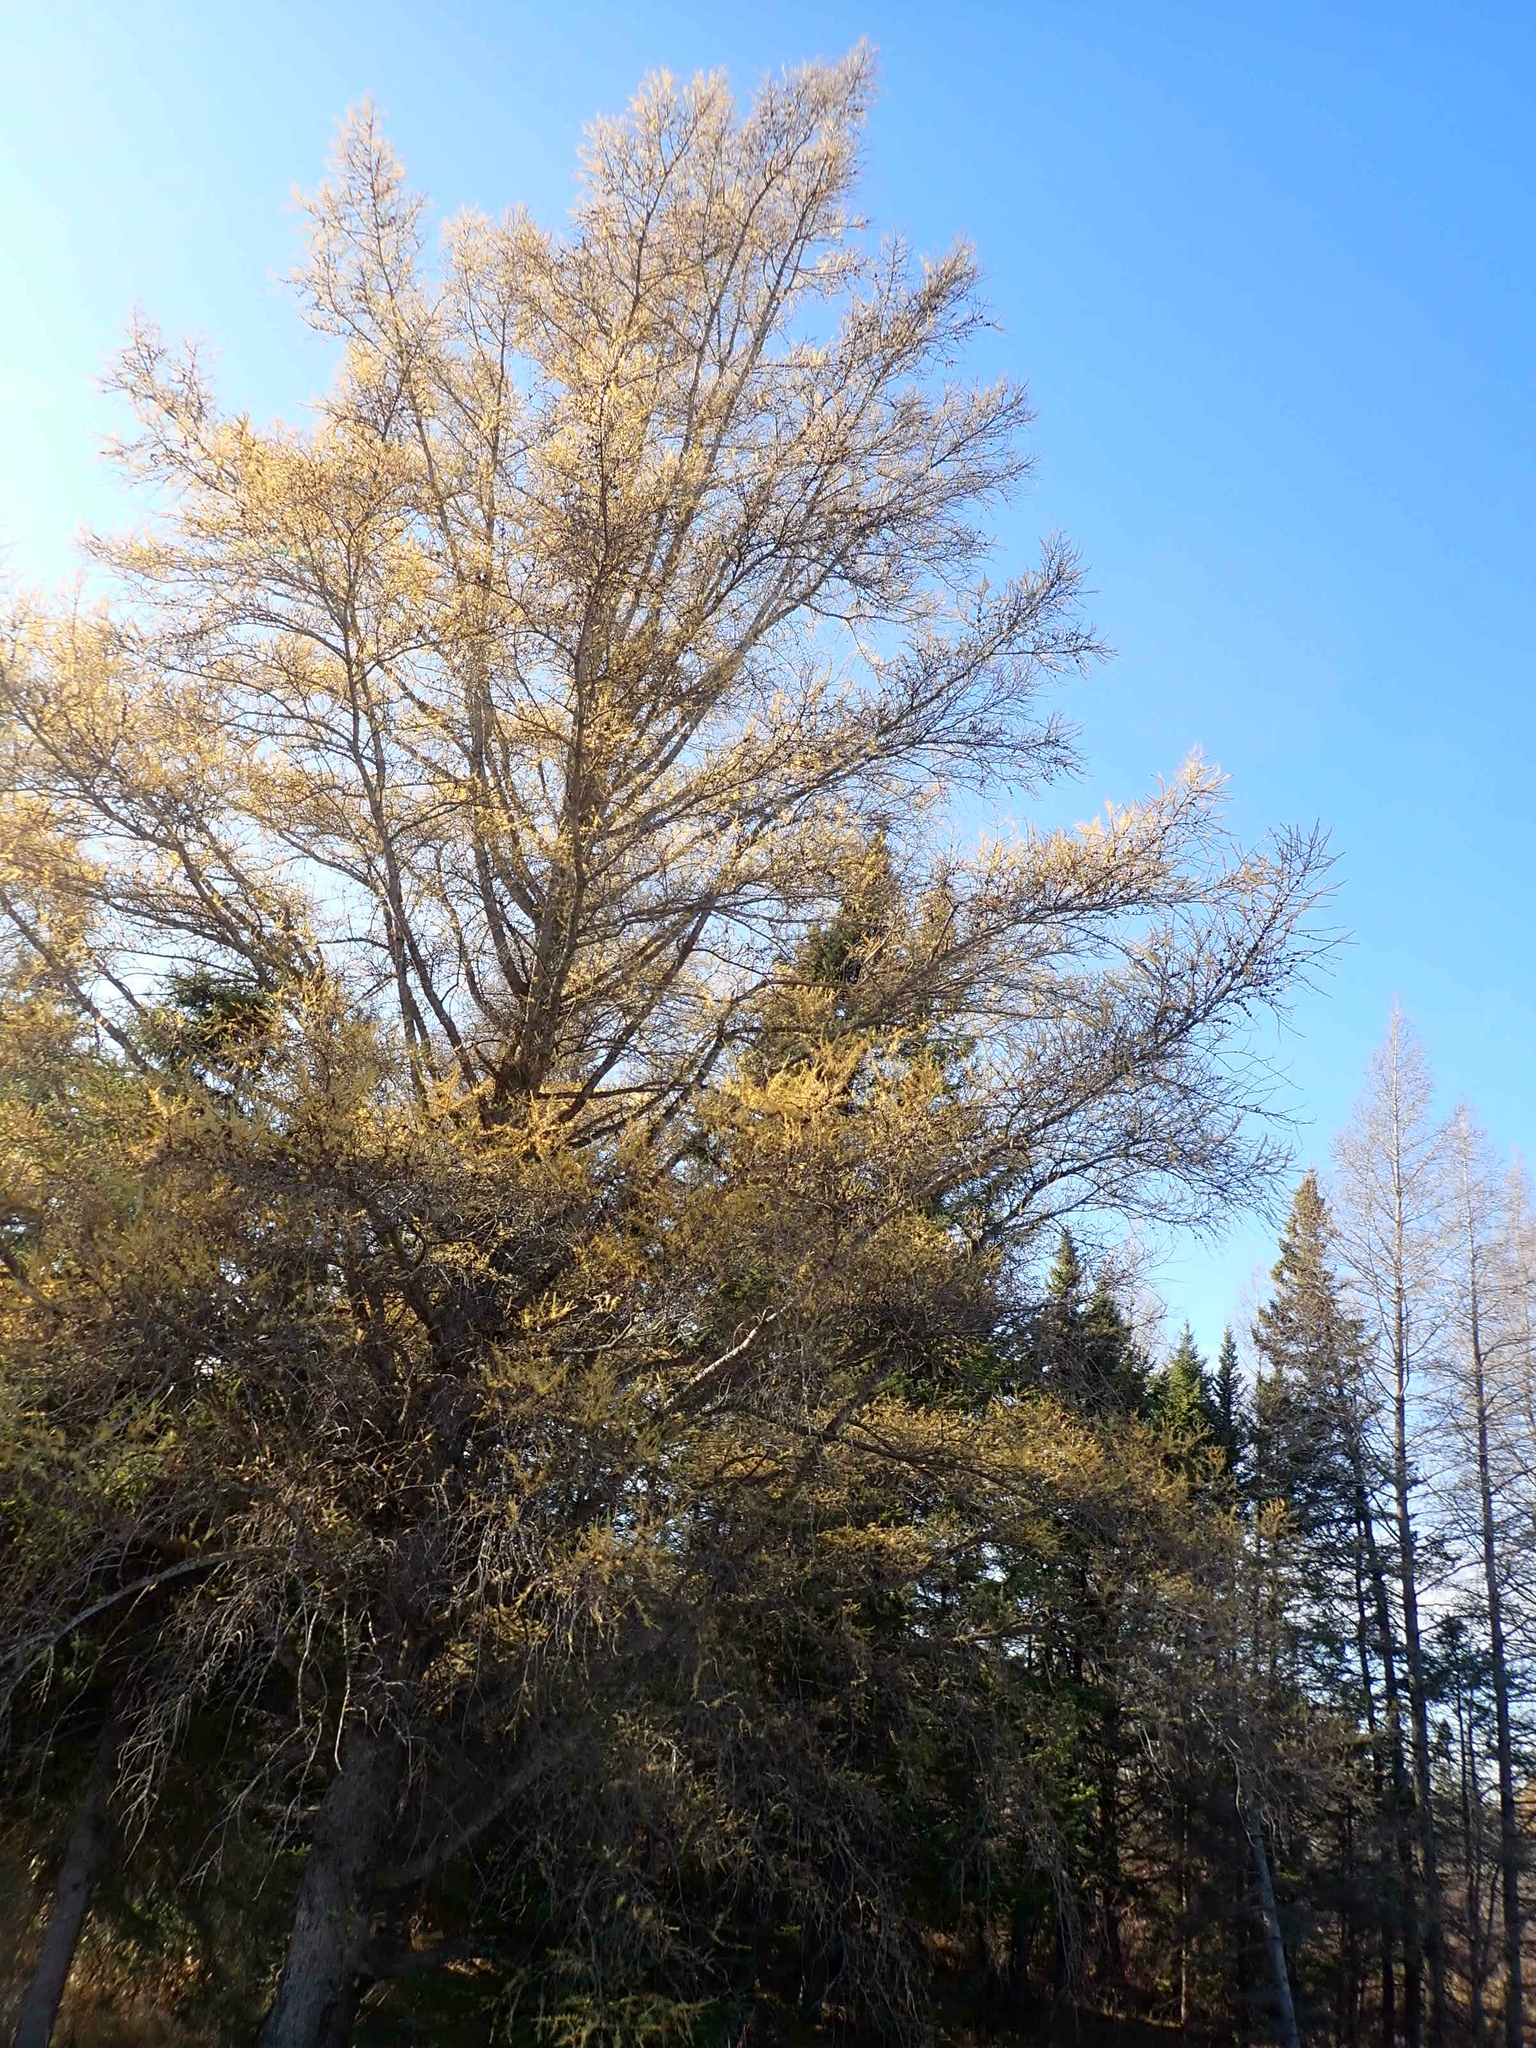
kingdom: Plantae
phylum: Tracheophyta
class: Pinopsida
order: Pinales
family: Pinaceae
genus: Larix
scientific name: Larix laricina
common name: American larch
